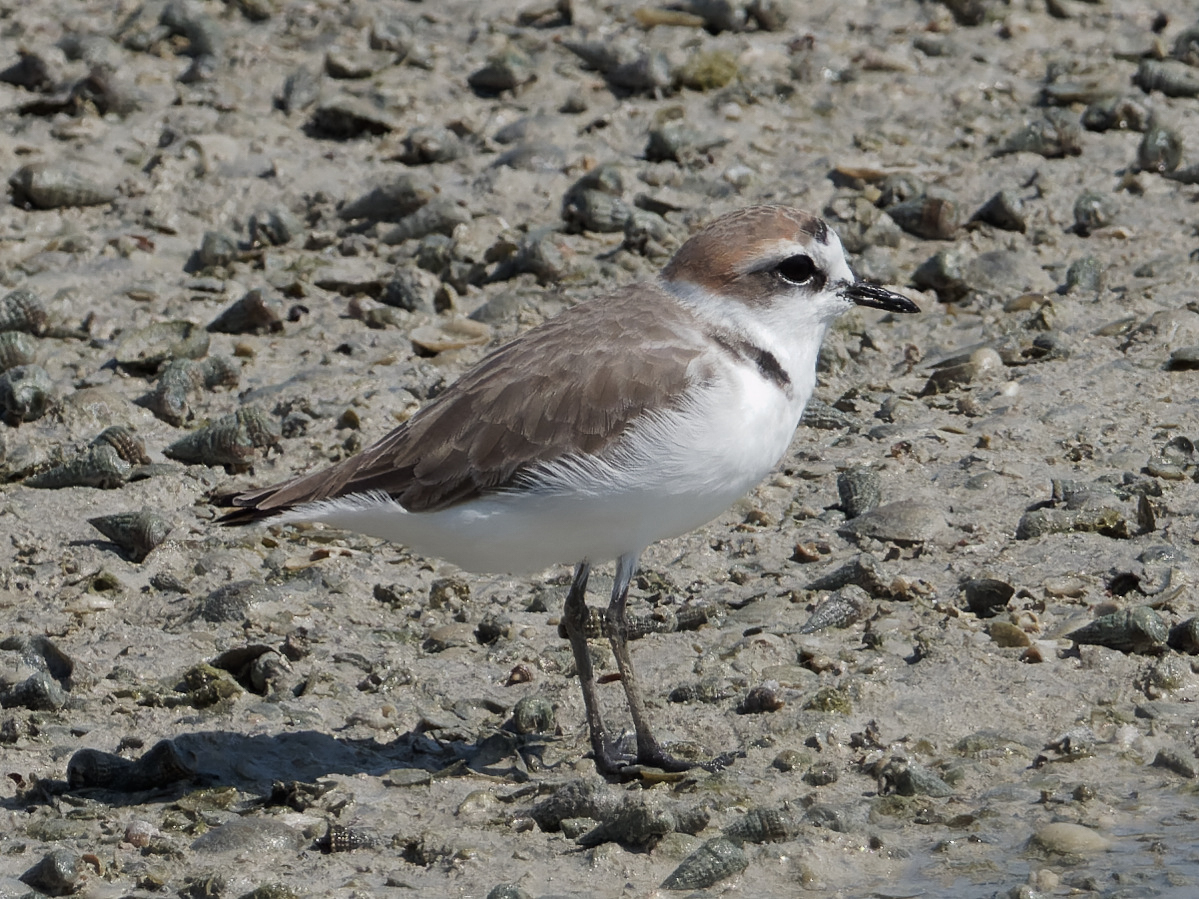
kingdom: Animalia
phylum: Chordata
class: Aves
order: Charadriiformes
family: Charadriidae
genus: Charadrius
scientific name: Charadrius alexandrinus
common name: Kentish plover
